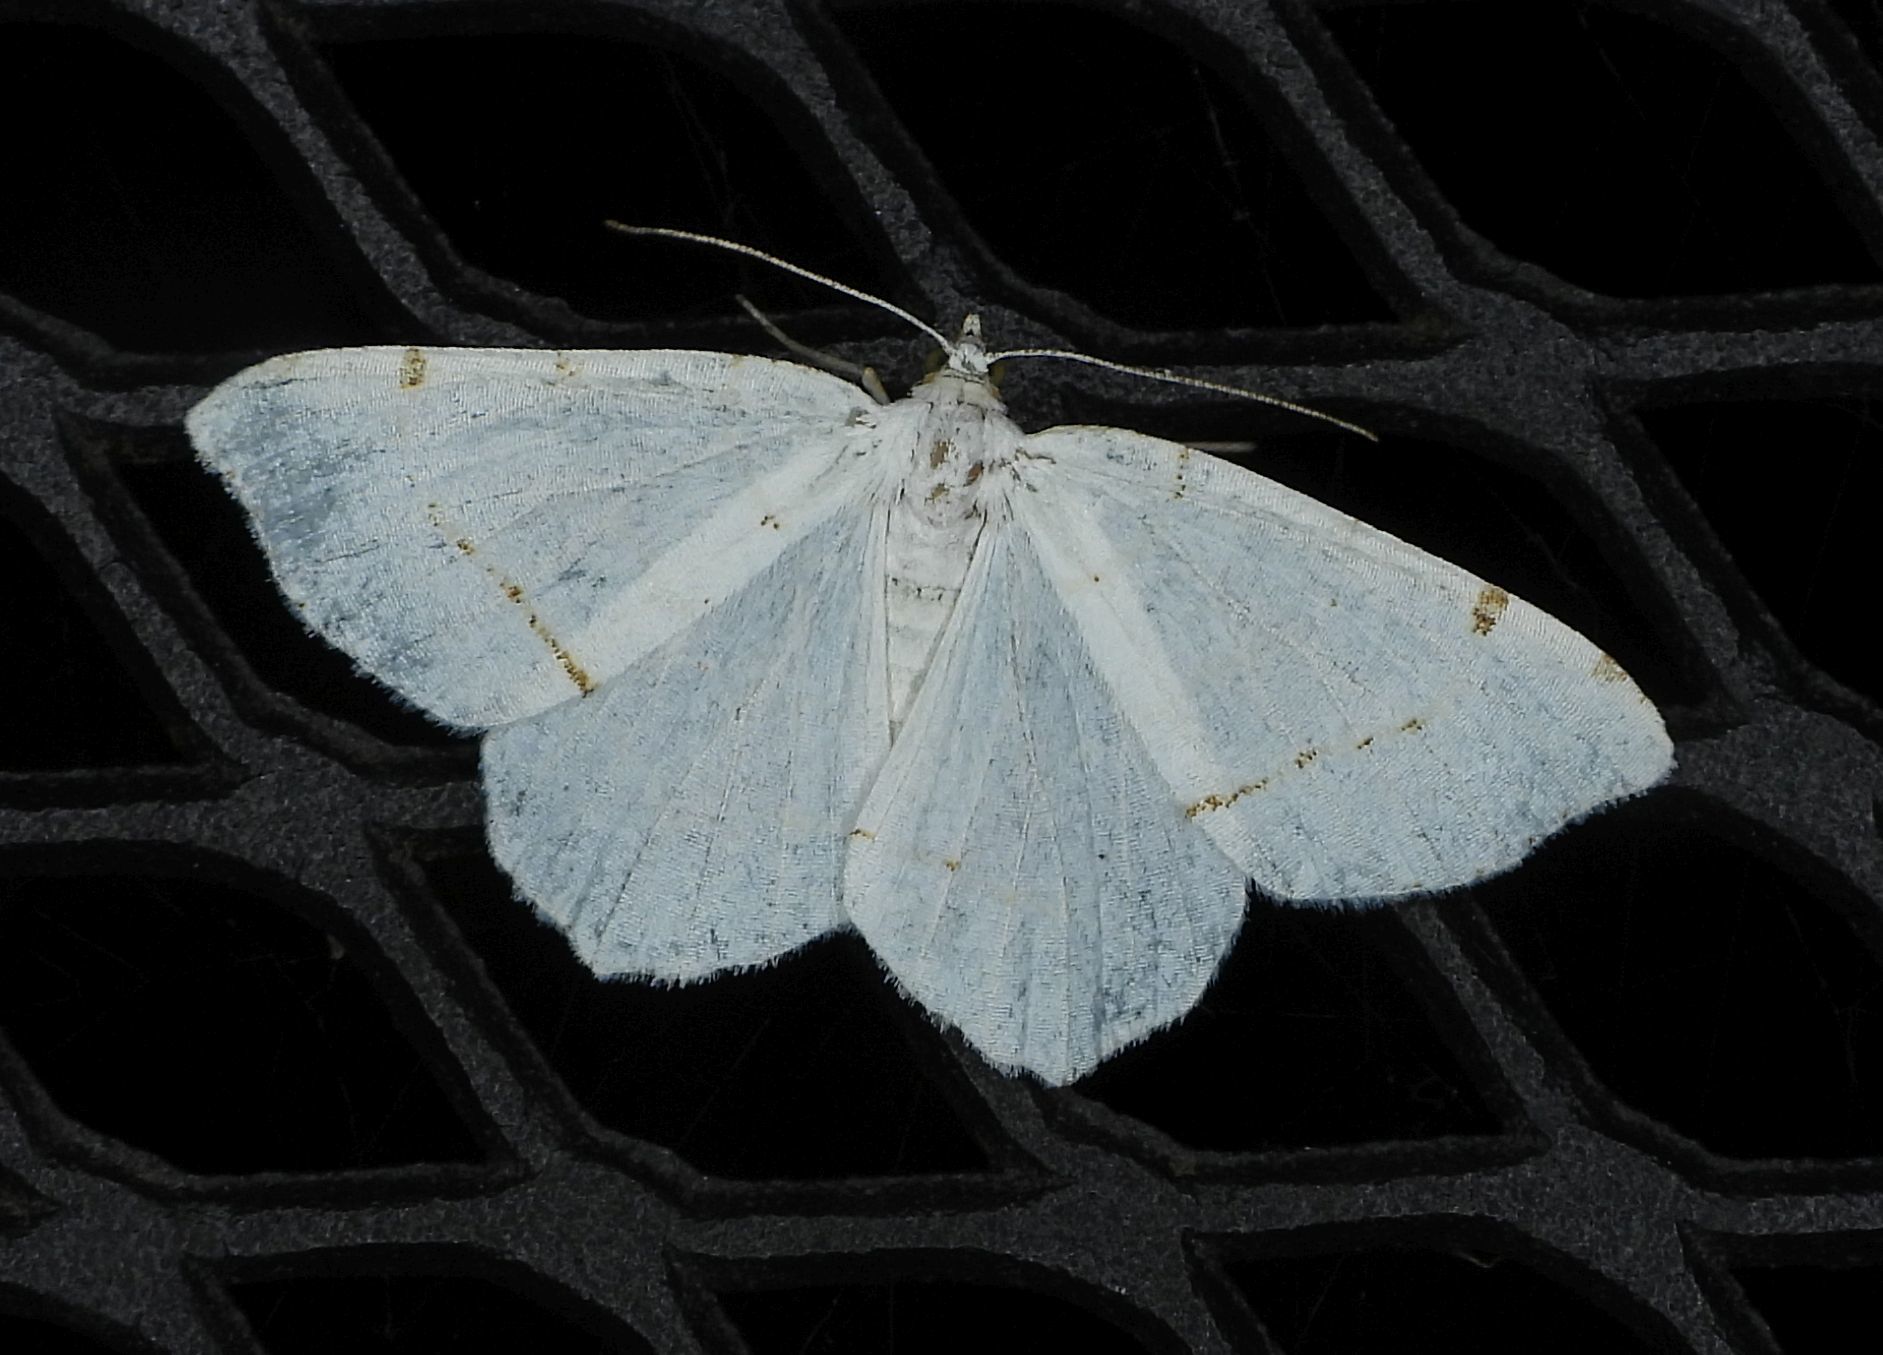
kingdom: Animalia
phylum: Arthropoda
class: Insecta
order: Lepidoptera
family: Geometridae
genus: Macaria
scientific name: Macaria pustularia
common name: Lesser maple spanworm moth
